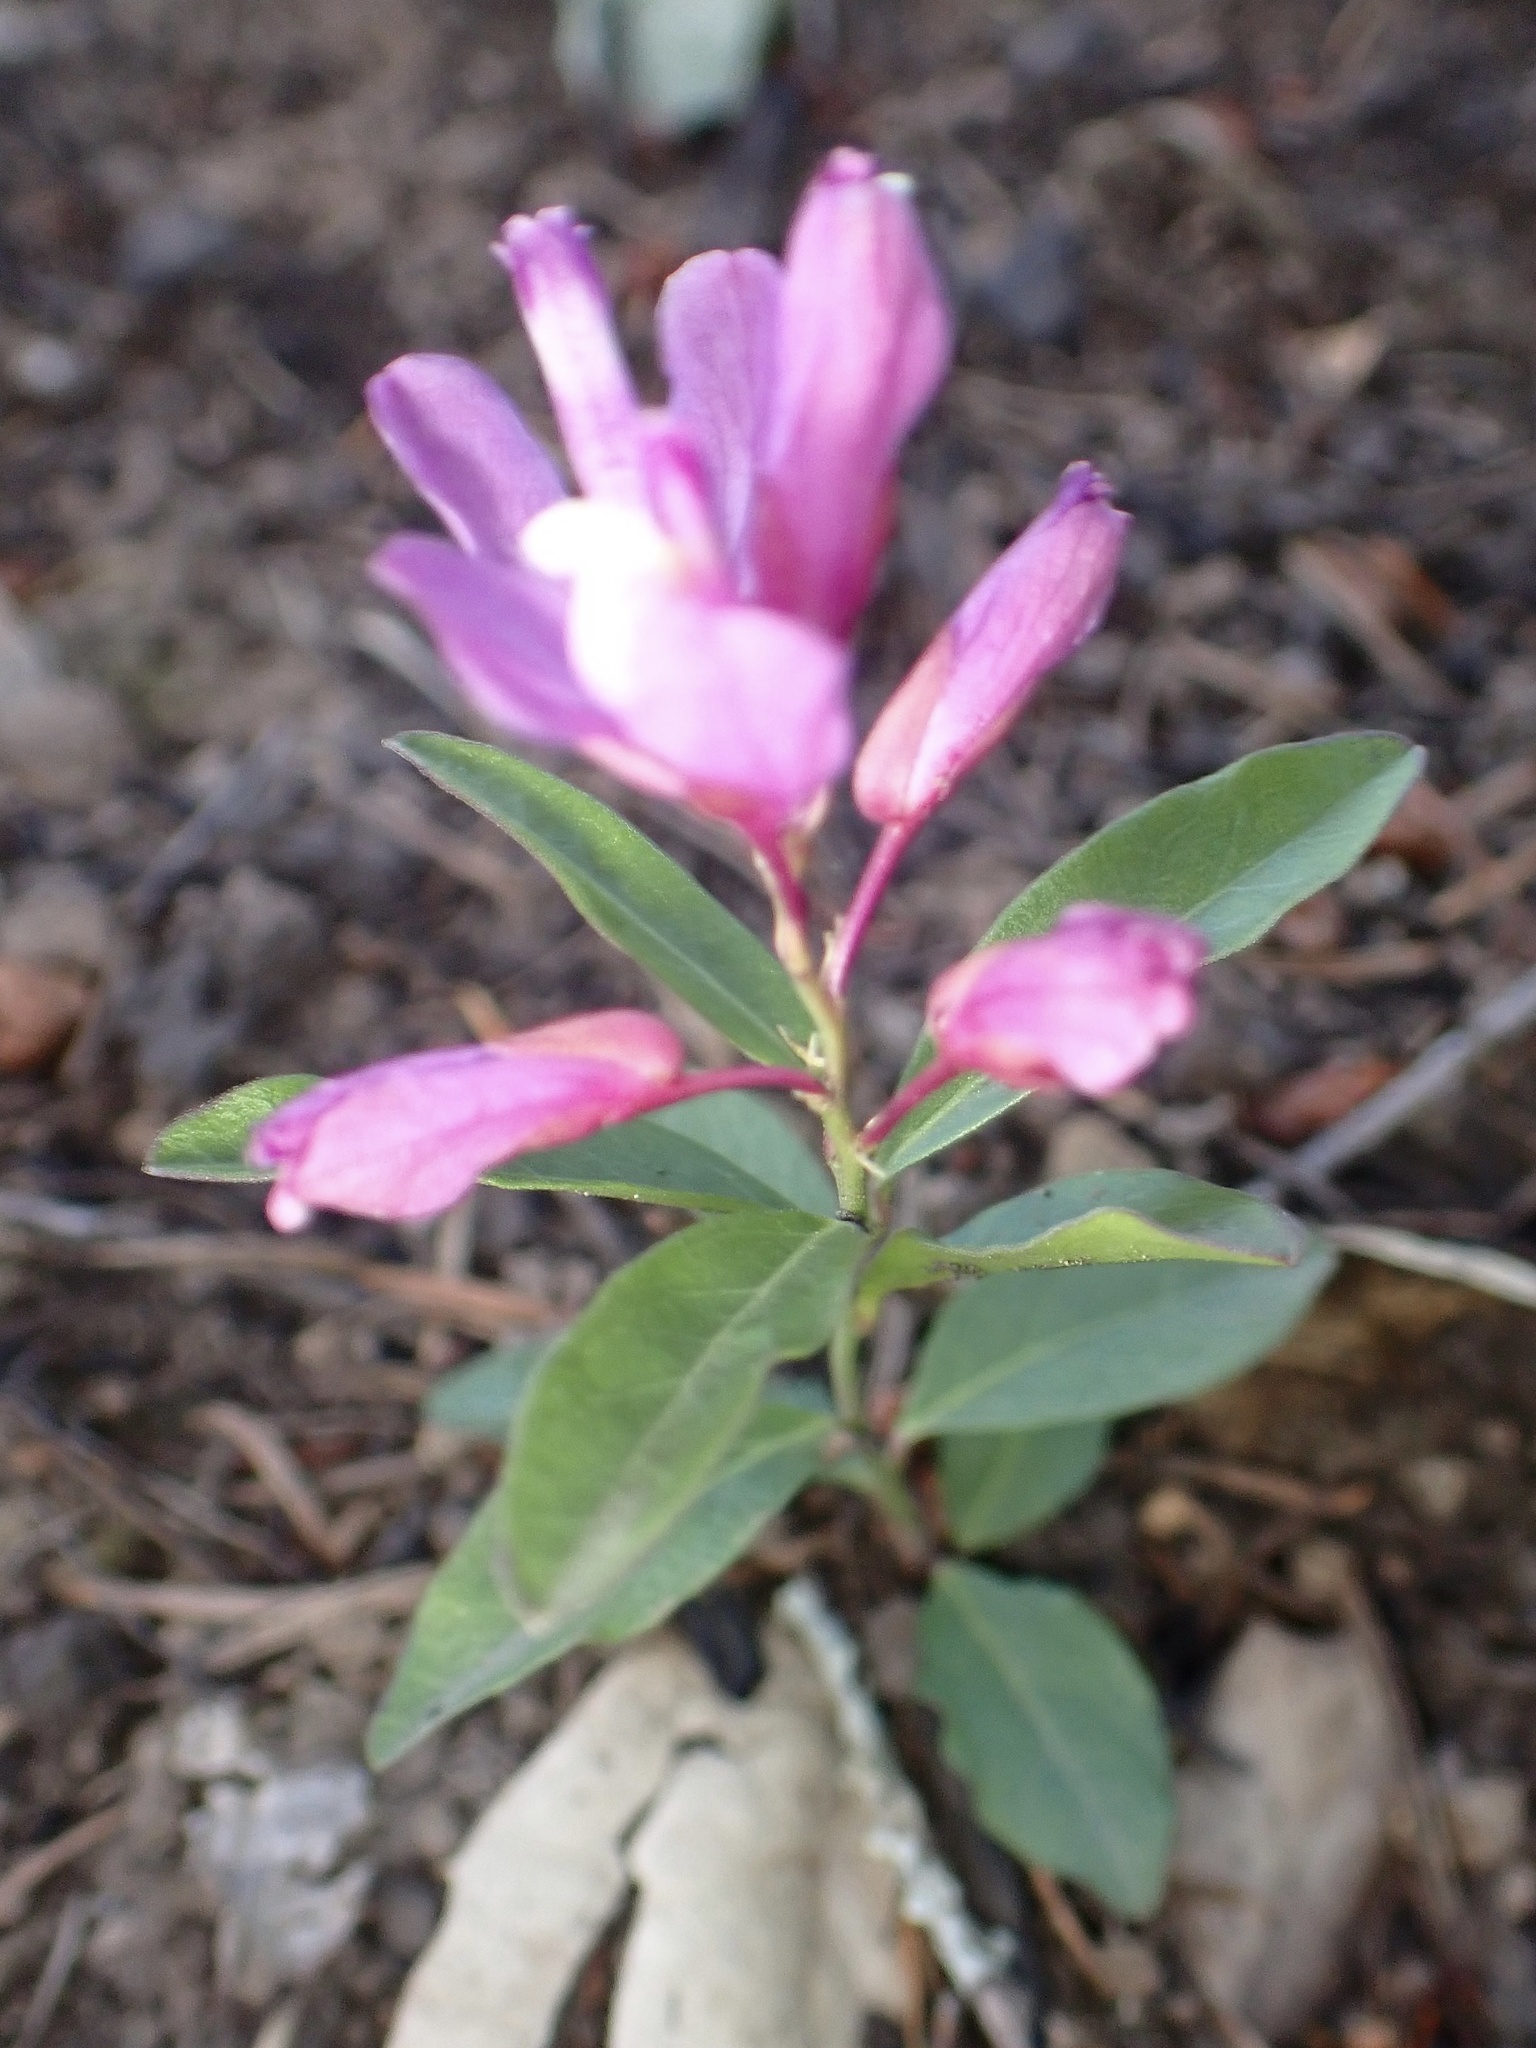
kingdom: Plantae
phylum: Tracheophyta
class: Magnoliopsida
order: Fabales
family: Polygalaceae
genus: Rhinotropis
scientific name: Rhinotropis californica
